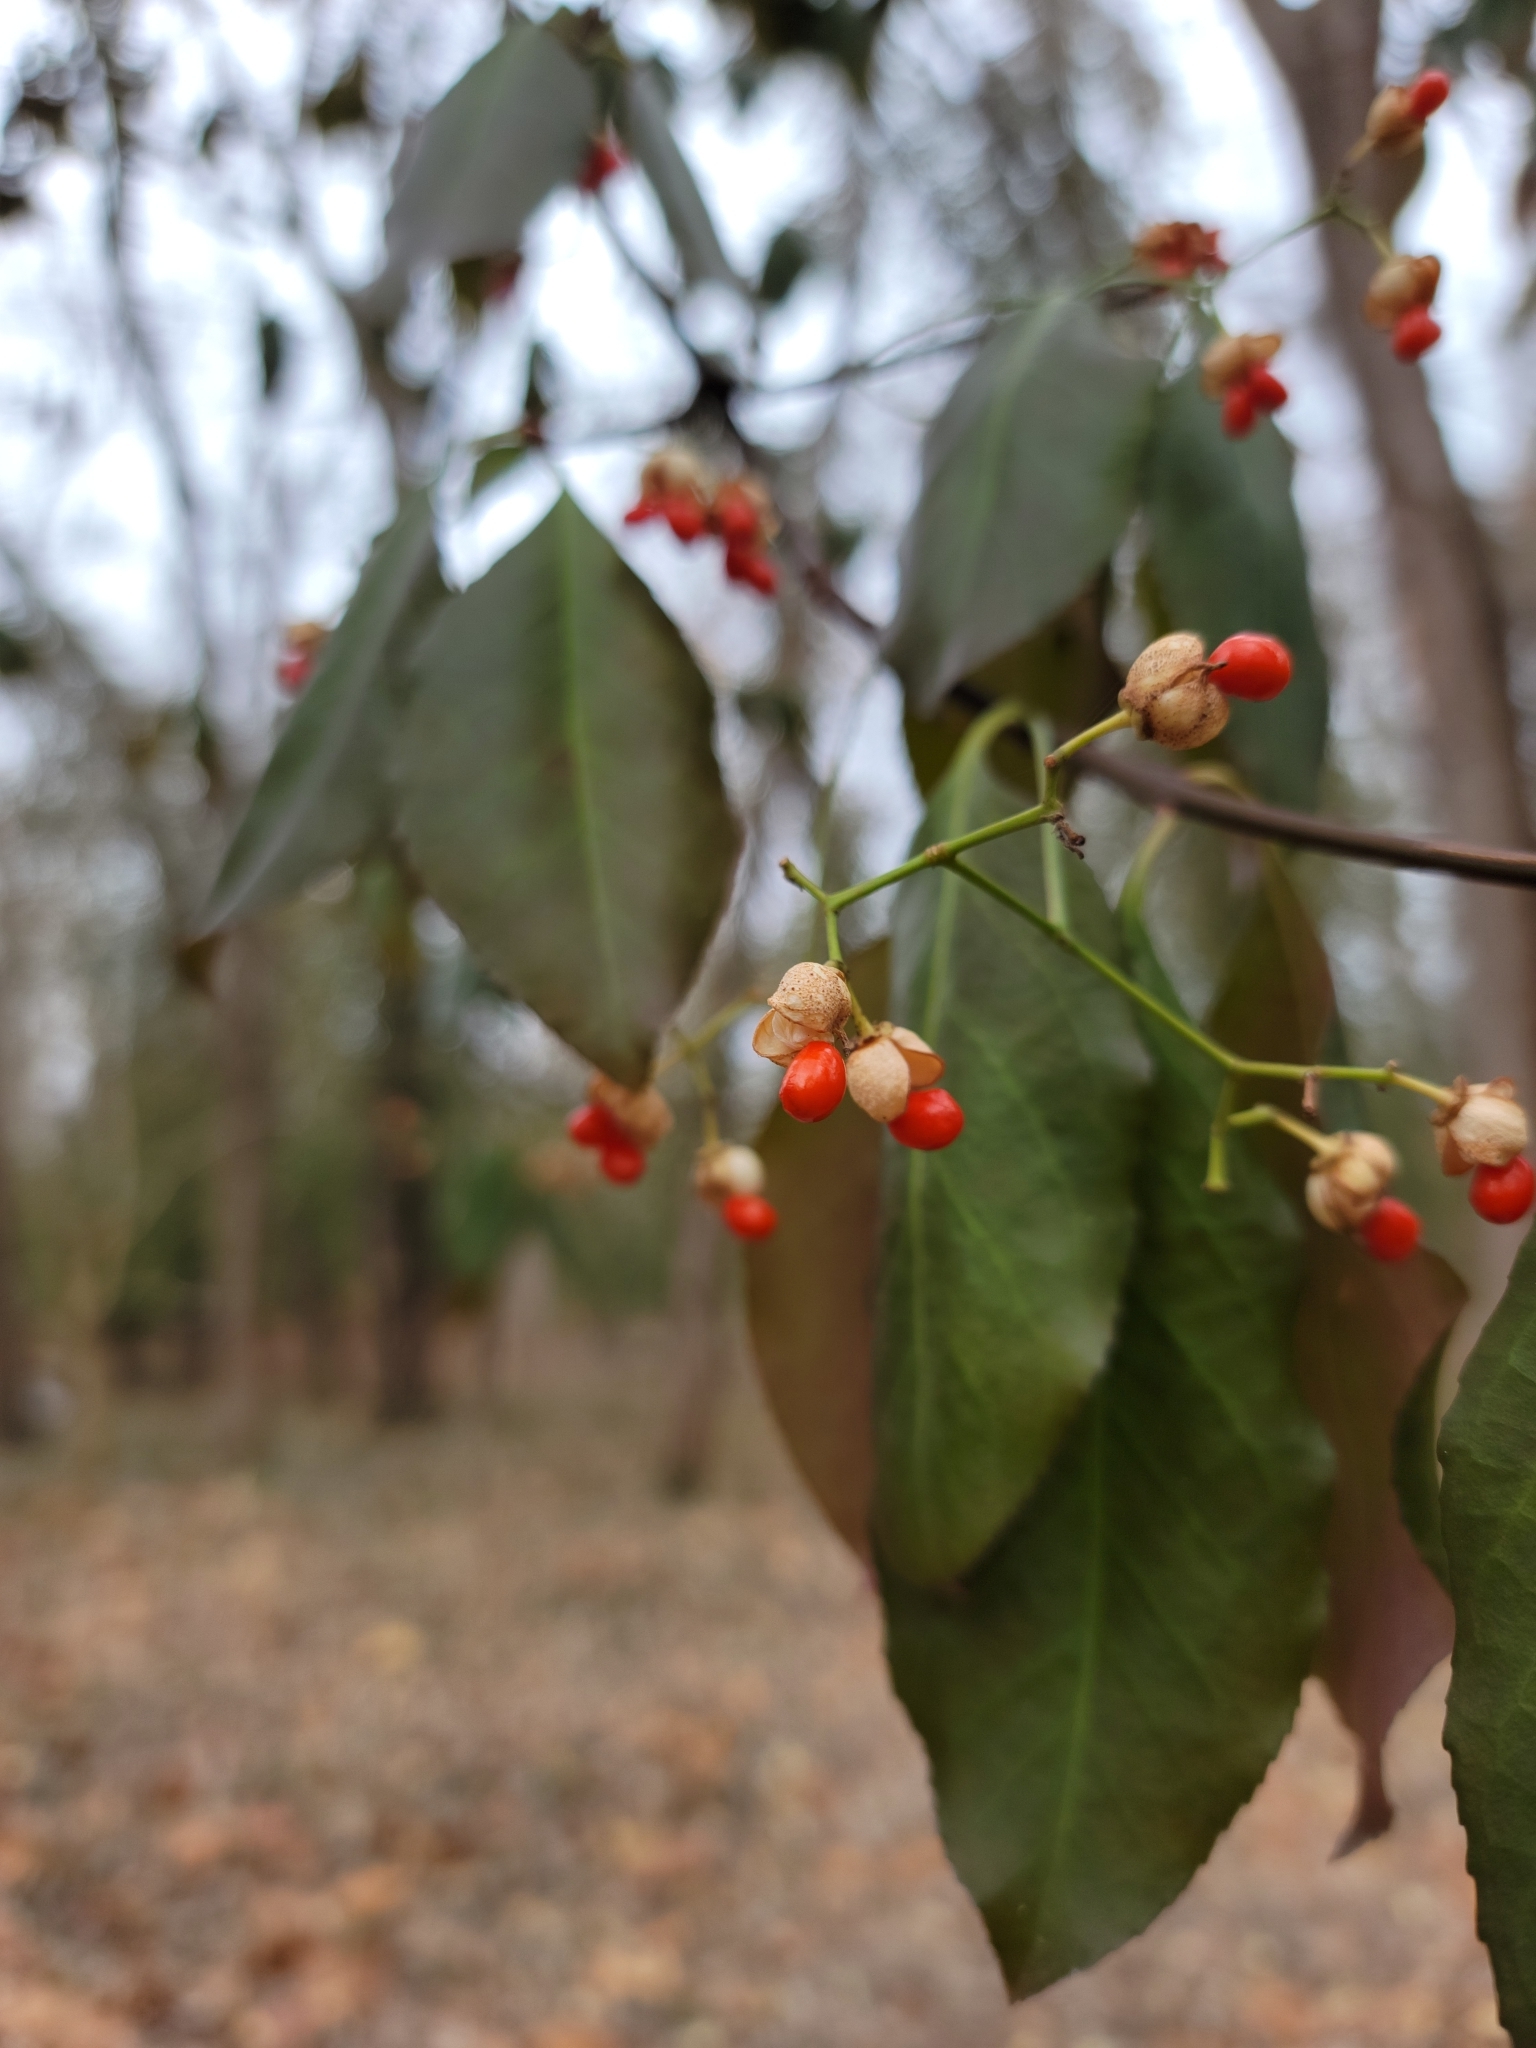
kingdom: Plantae
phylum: Tracheophyta
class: Magnoliopsida
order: Celastrales
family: Celastraceae
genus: Euonymus
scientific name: Euonymus fortunei
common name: Climbing euonymus
